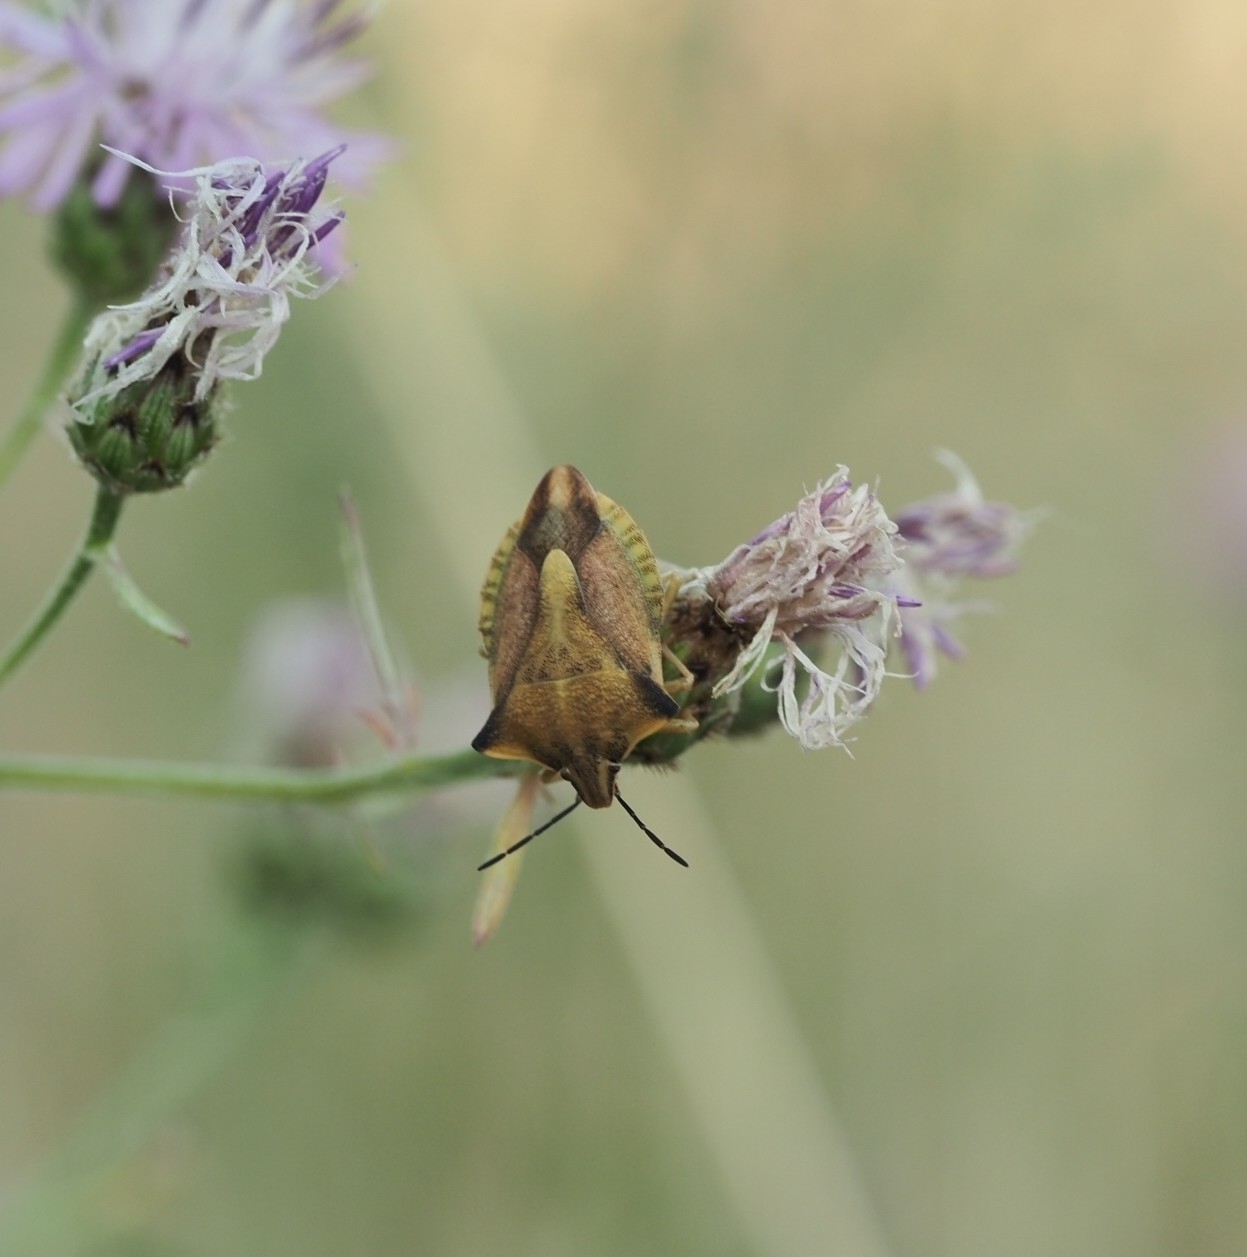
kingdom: Animalia
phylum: Arthropoda
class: Insecta
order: Hemiptera
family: Pentatomidae
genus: Carpocoris
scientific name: Carpocoris fuscispinus
